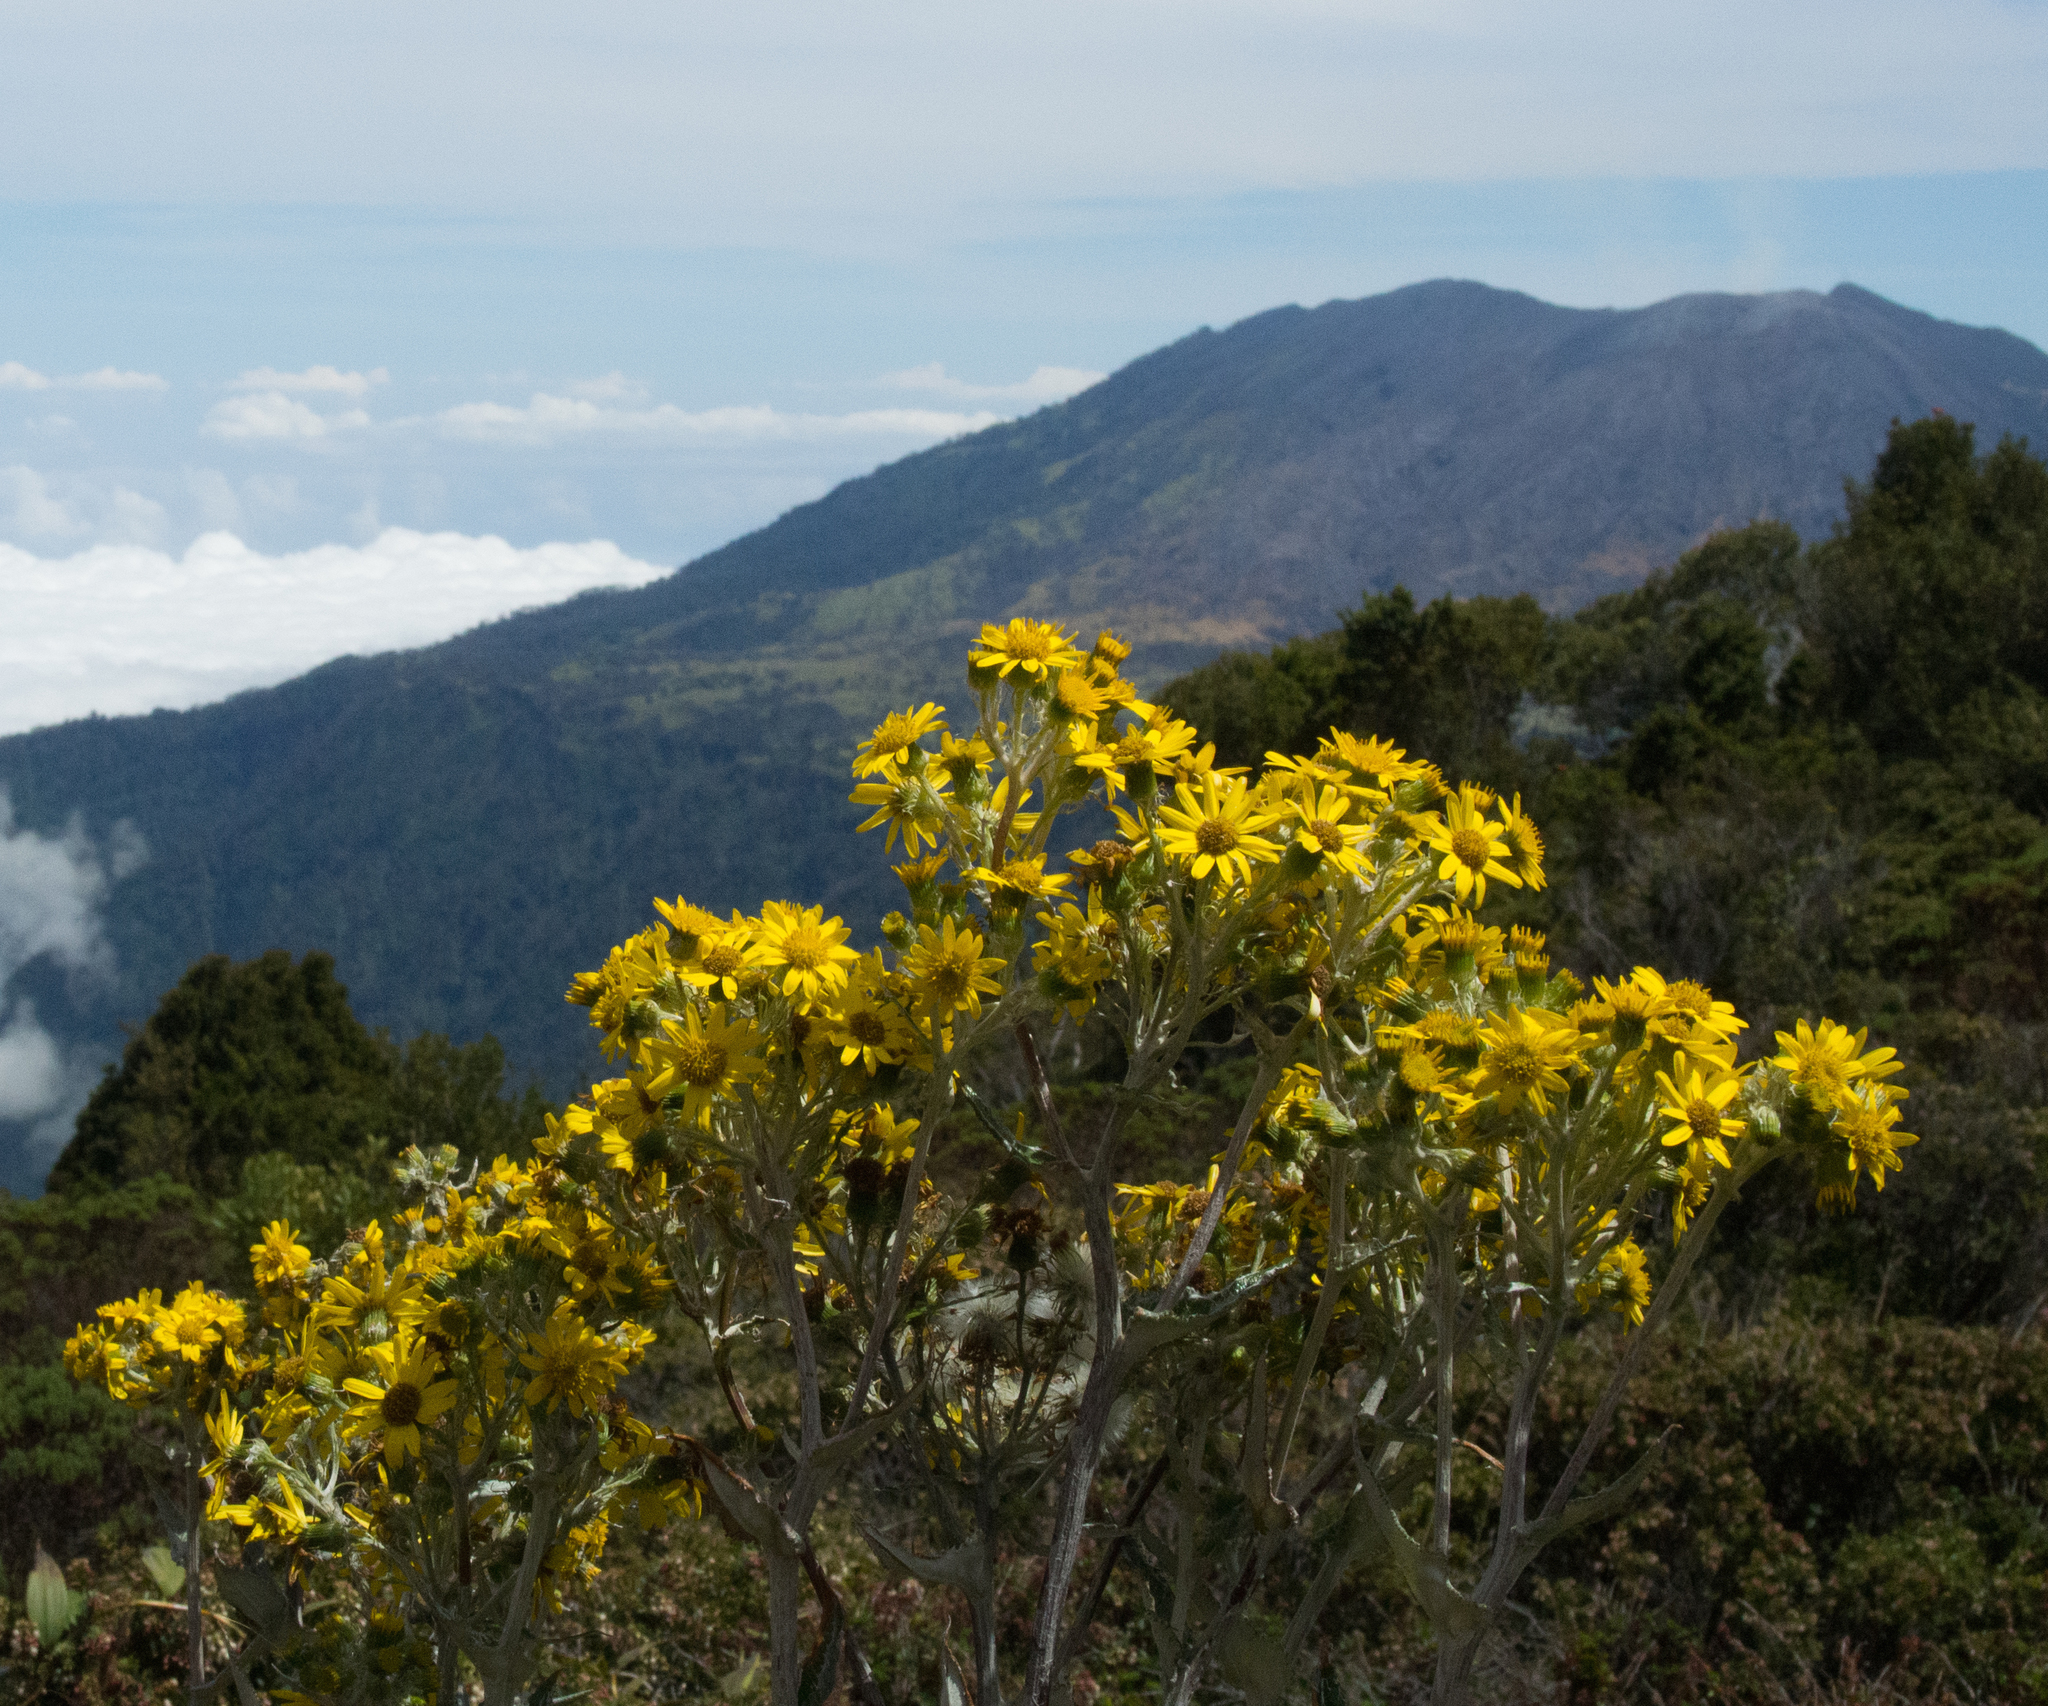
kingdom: Plantae
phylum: Tracheophyta
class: Magnoliopsida
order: Asterales
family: Asteraceae
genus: Senecio
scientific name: Senecio oerstedianus
